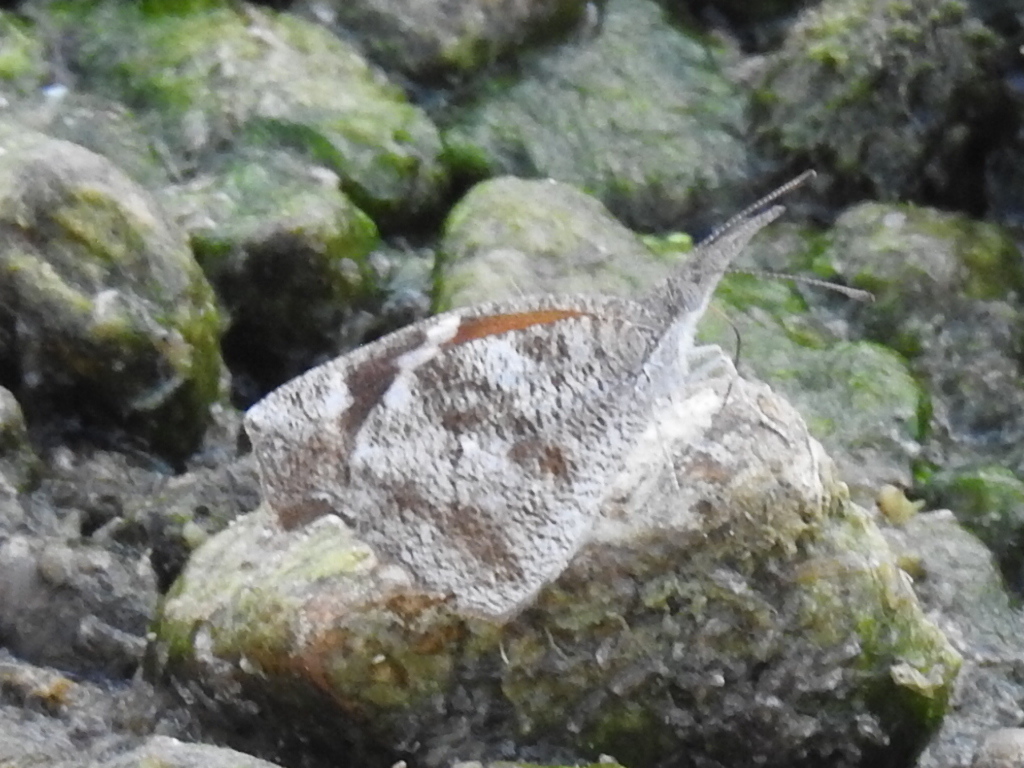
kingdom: Animalia
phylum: Arthropoda
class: Insecta
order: Lepidoptera
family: Nymphalidae
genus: Libytheana
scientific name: Libytheana carinenta
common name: American snout
